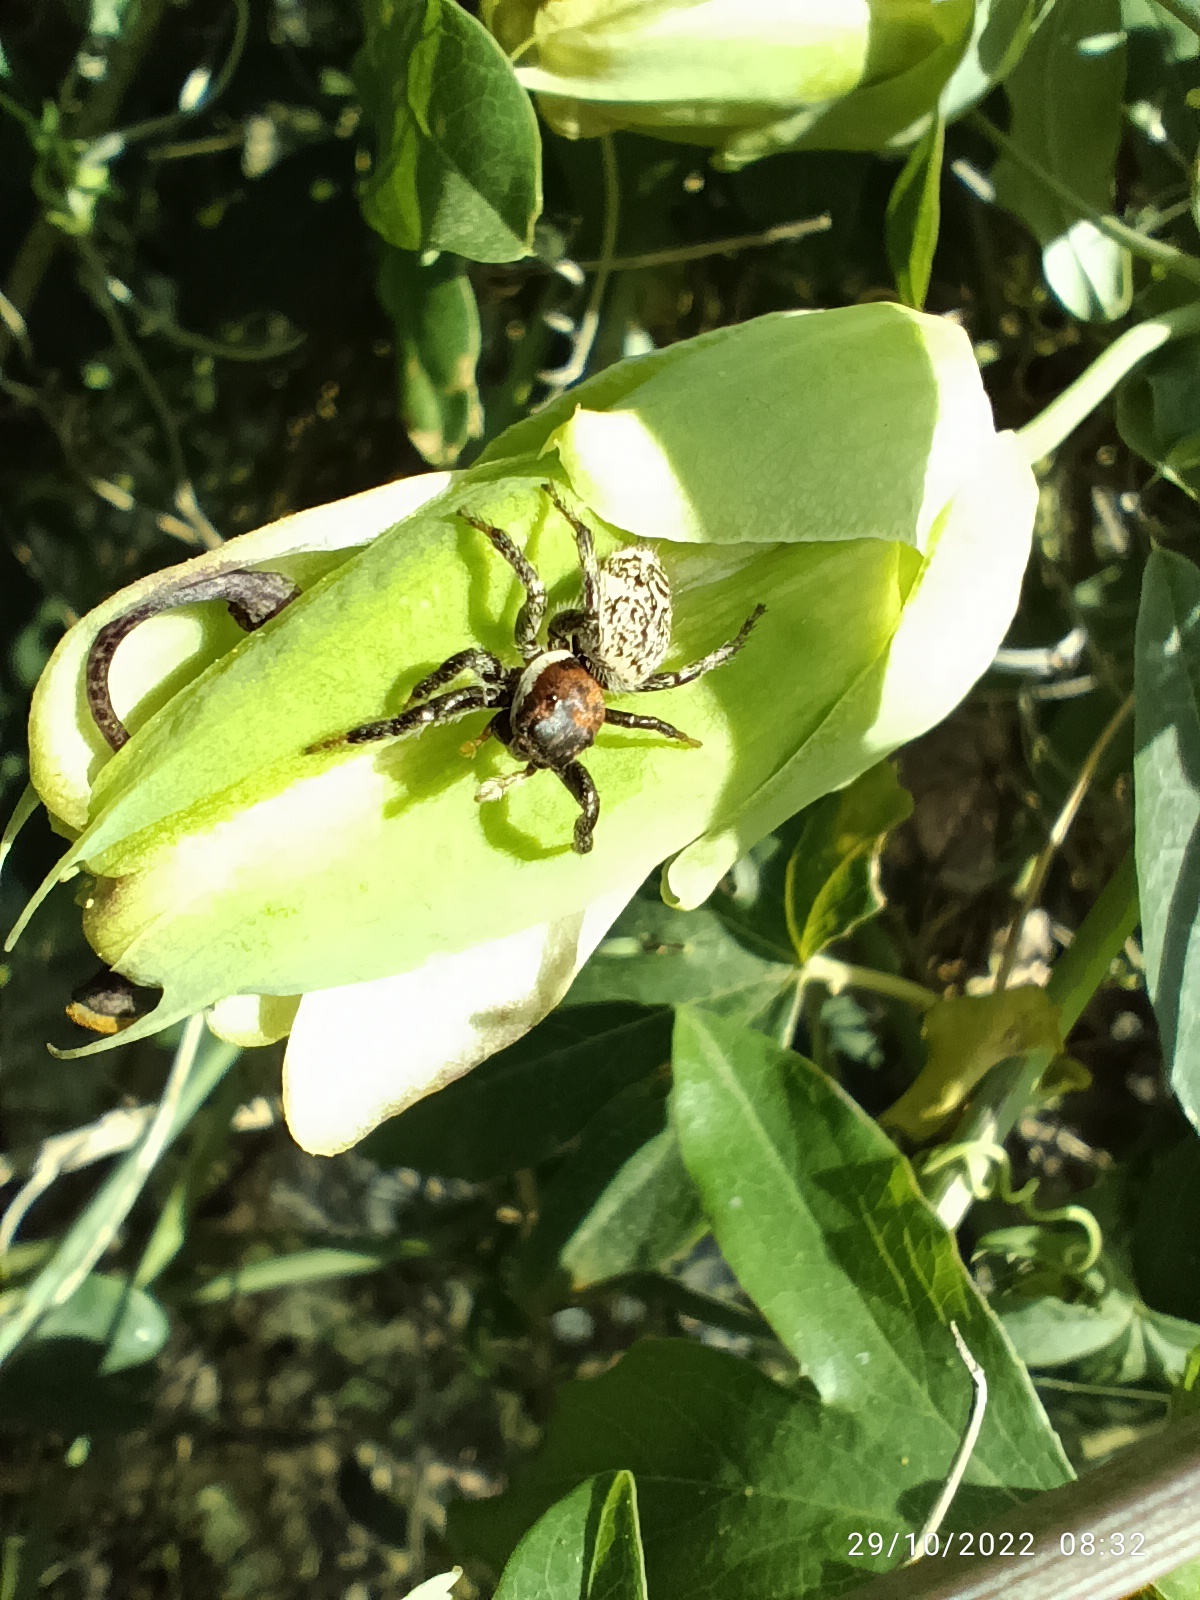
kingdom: Animalia
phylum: Arthropoda
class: Arachnida
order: Araneae
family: Salticidae
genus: Phiale
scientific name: Phiale roburifoliata
